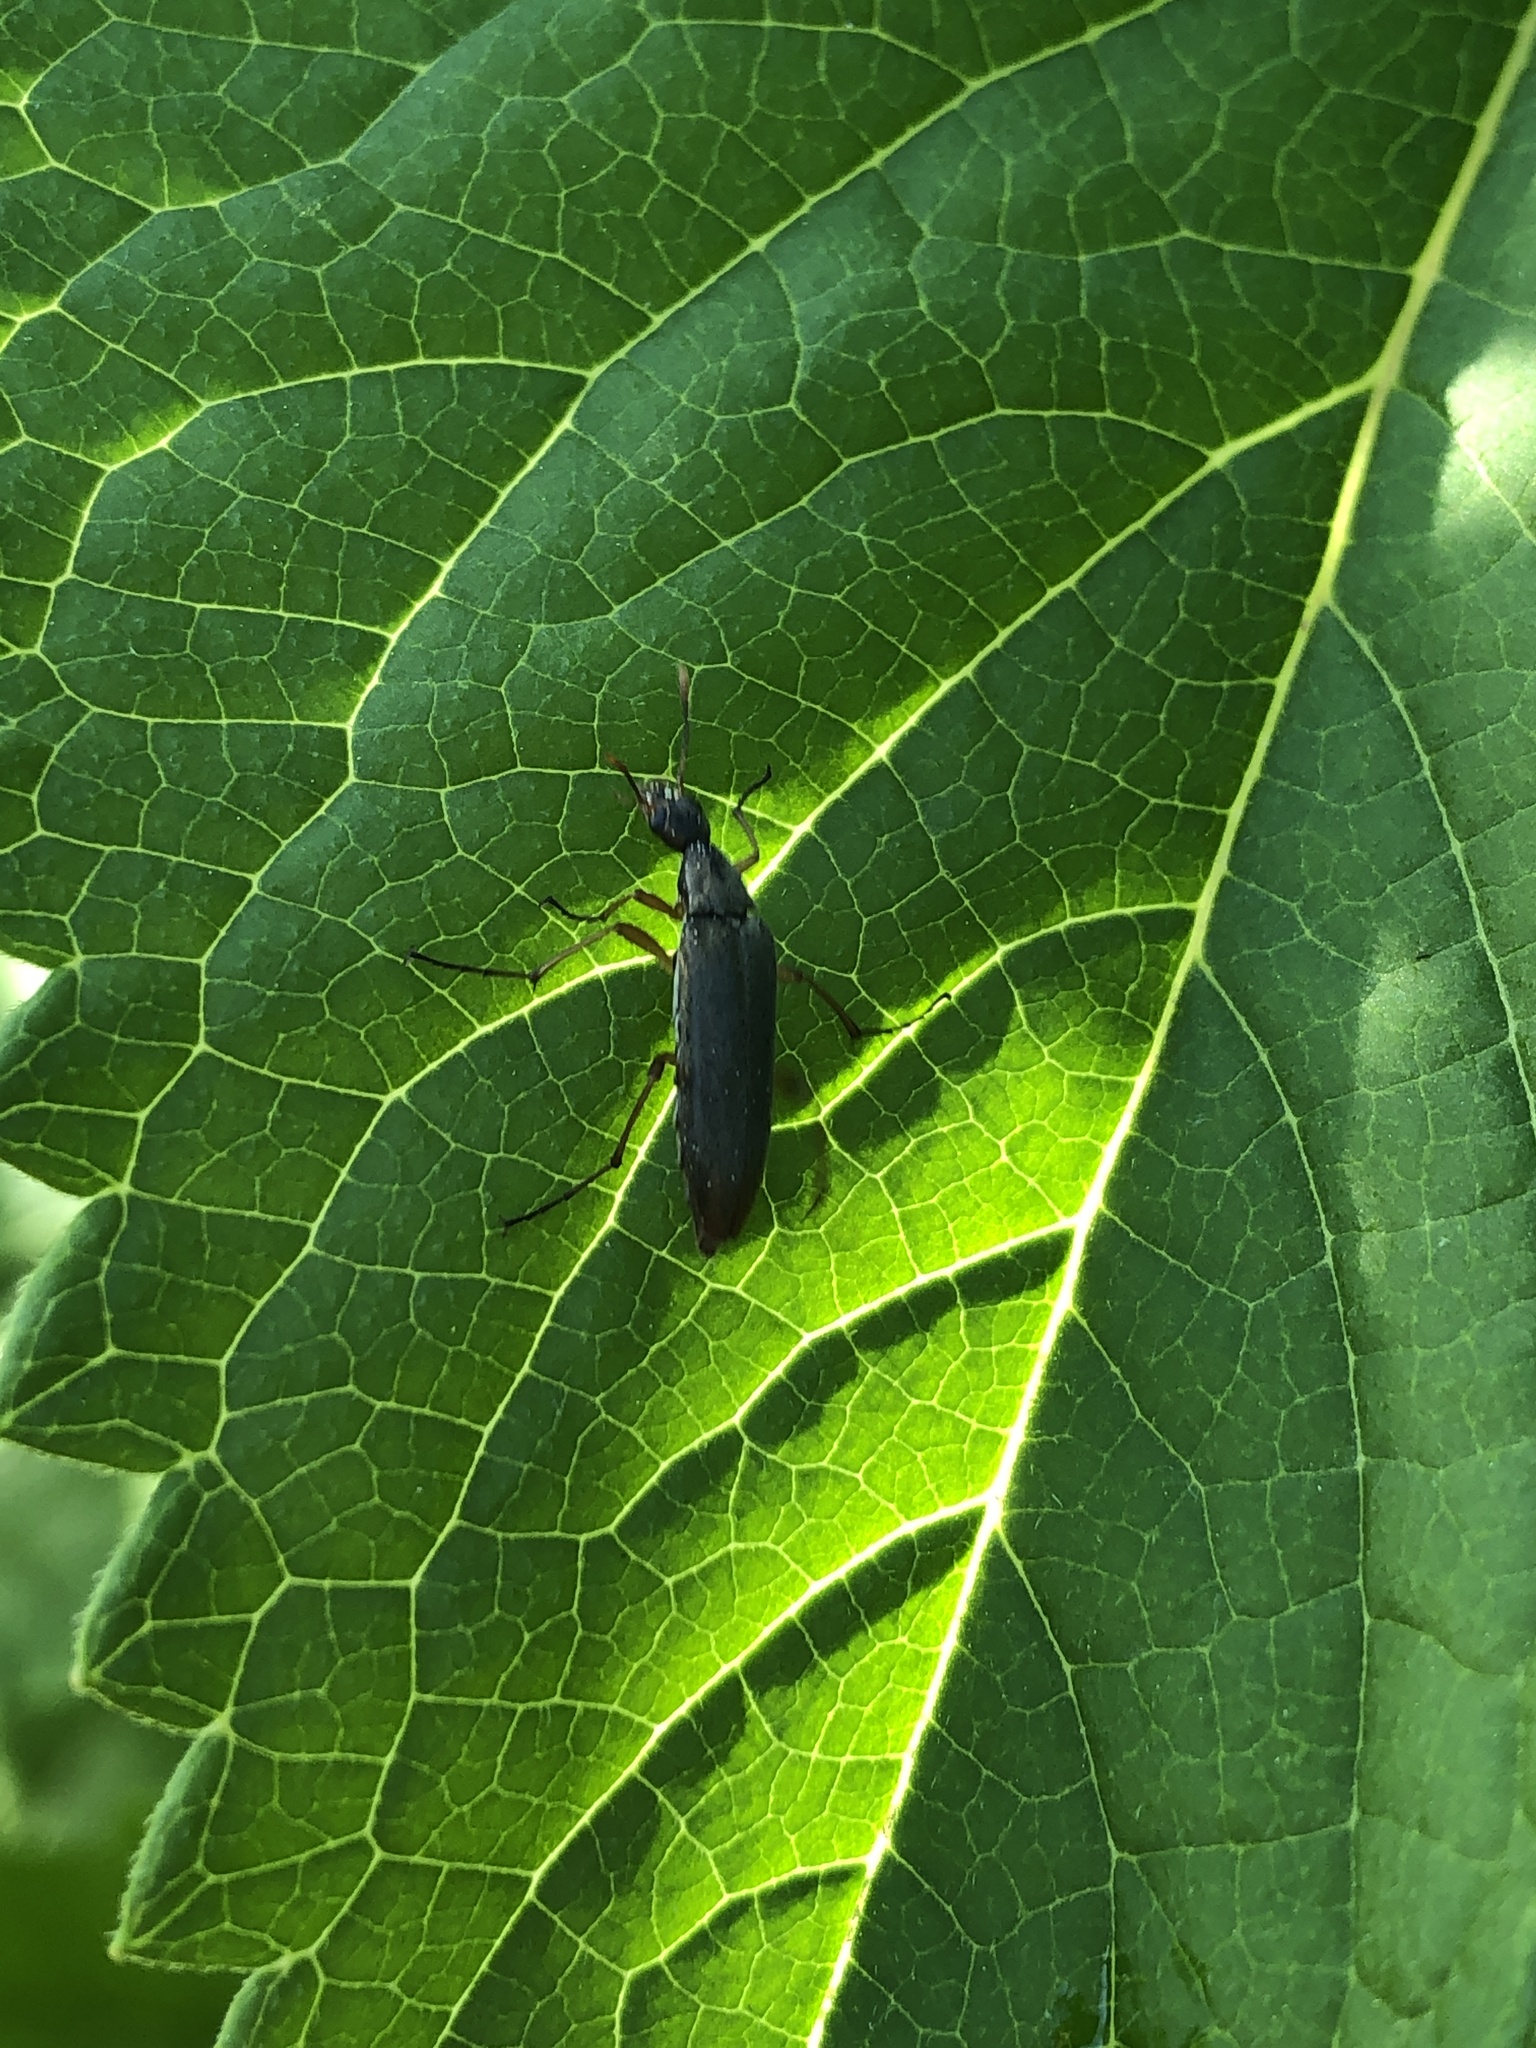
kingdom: Animalia
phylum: Arthropoda
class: Insecta
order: Coleoptera
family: Stenotrachelidae
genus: Cephaloon
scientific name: Cephaloon lepturides
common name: False leptura beetle
